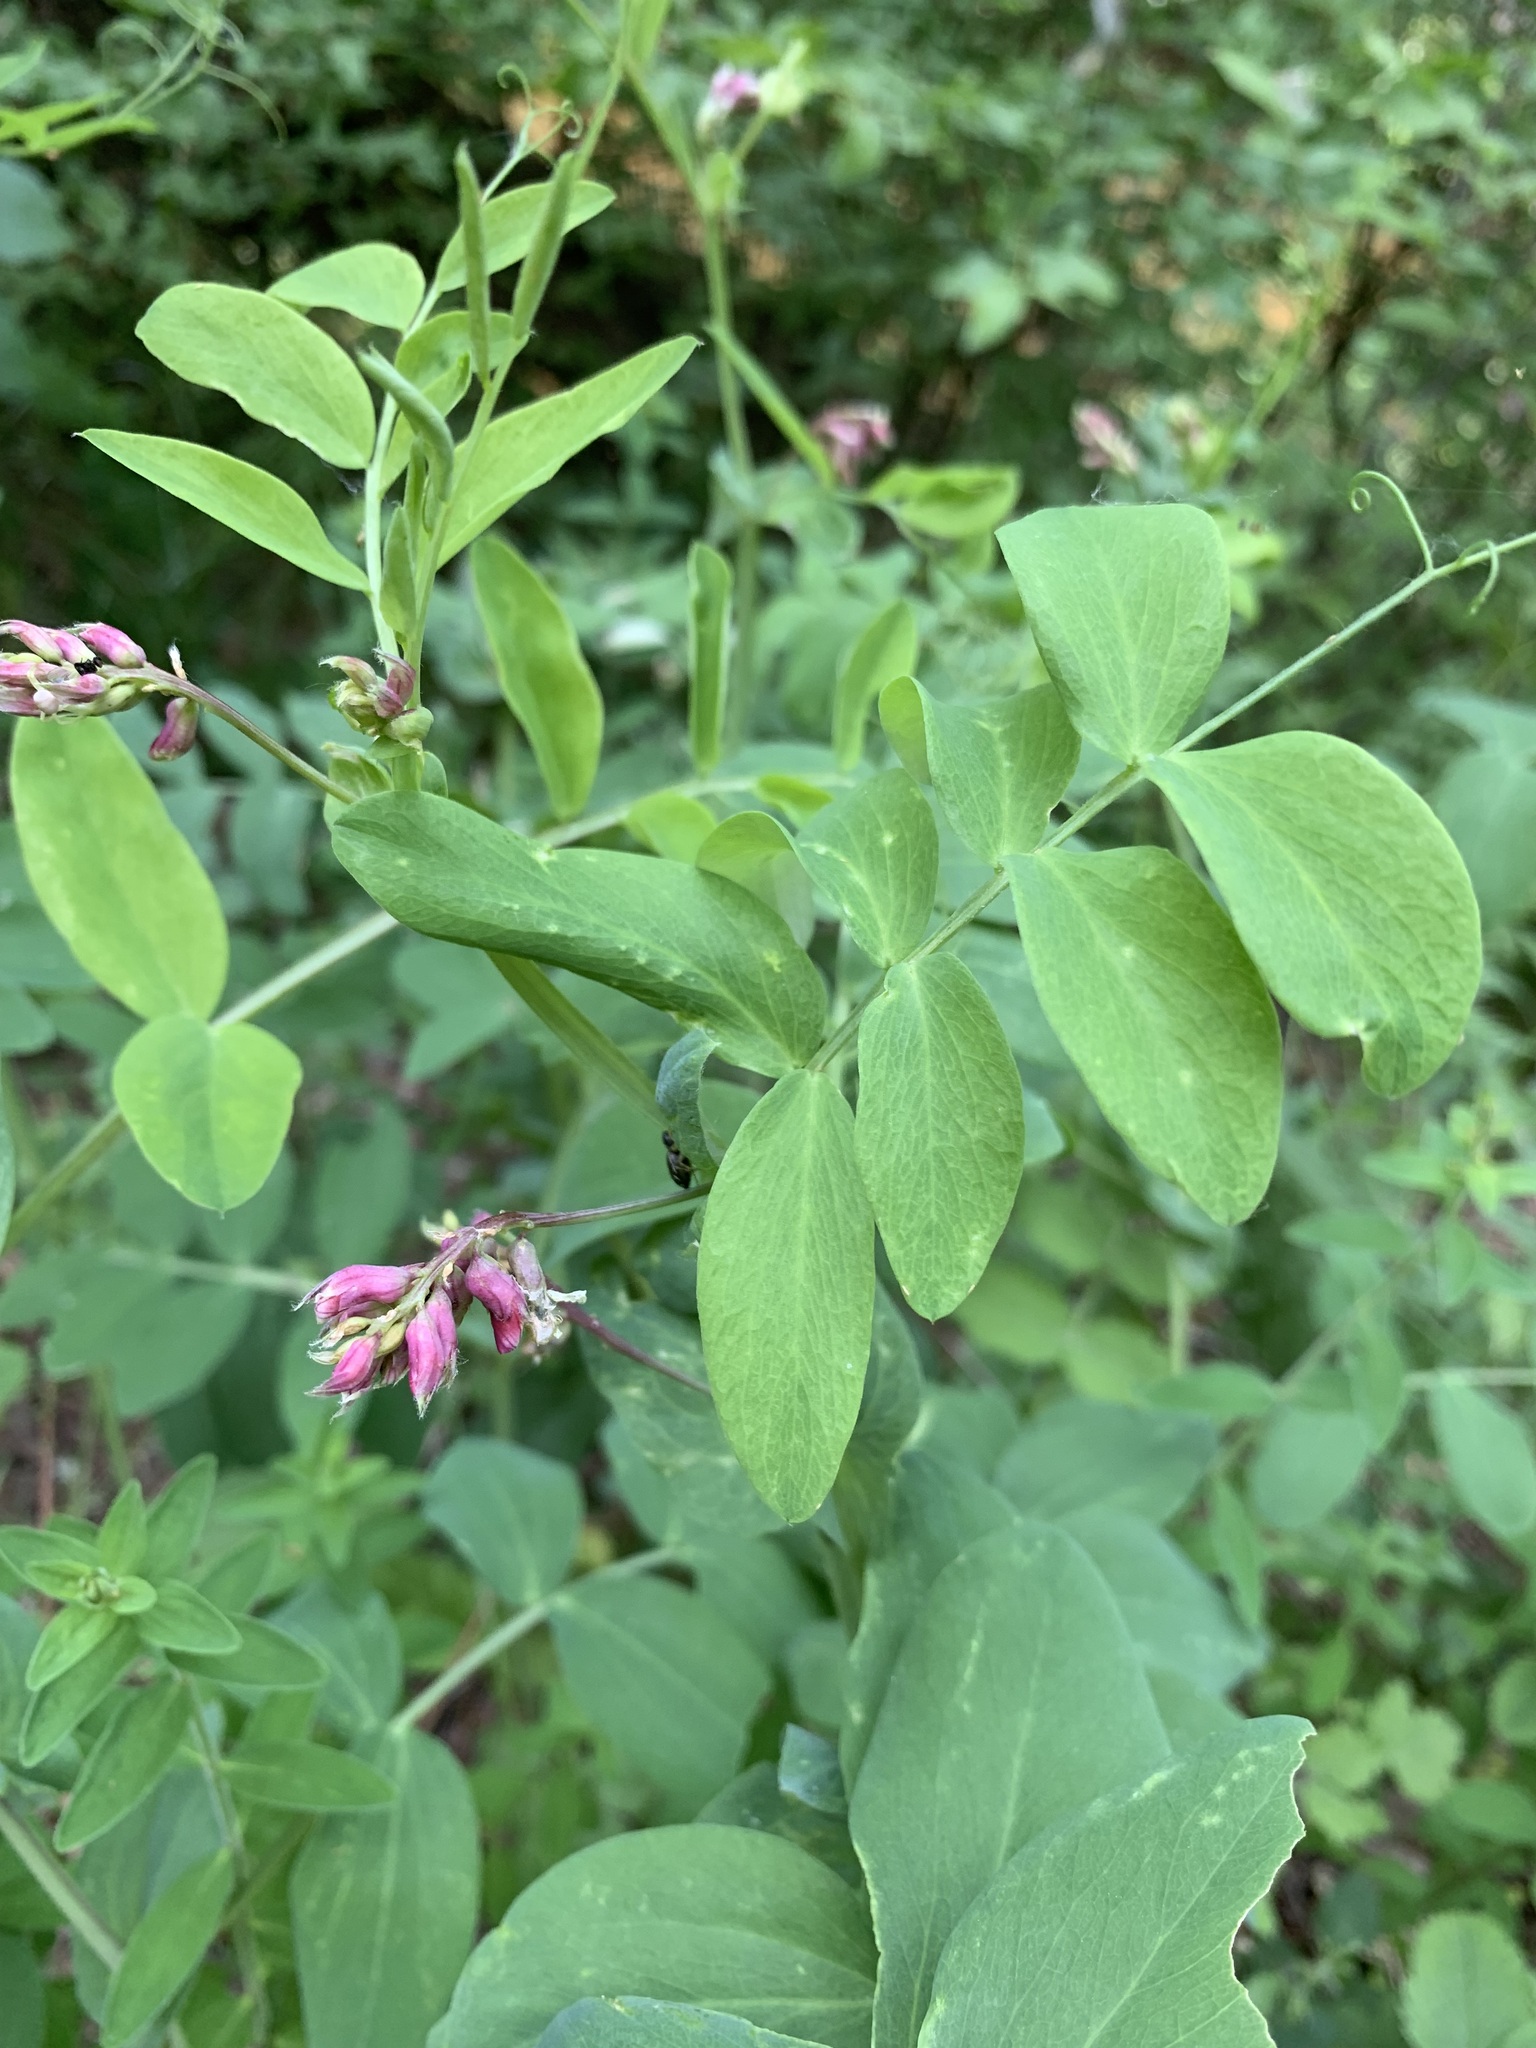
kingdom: Plantae
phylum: Tracheophyta
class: Magnoliopsida
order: Fabales
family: Fabaceae
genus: Lathyrus
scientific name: Lathyrus pisiformis
